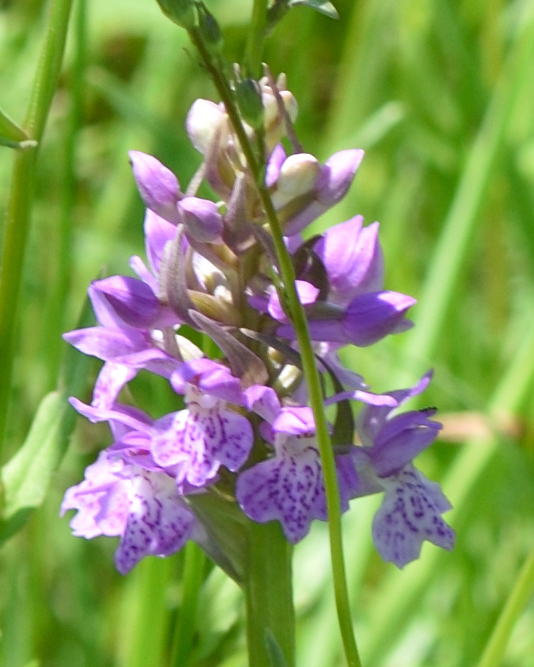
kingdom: Plantae
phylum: Tracheophyta
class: Liliopsida
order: Asparagales
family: Orchidaceae
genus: Dactylorhiza
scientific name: Dactylorhiza majalis
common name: Marsh orchid
